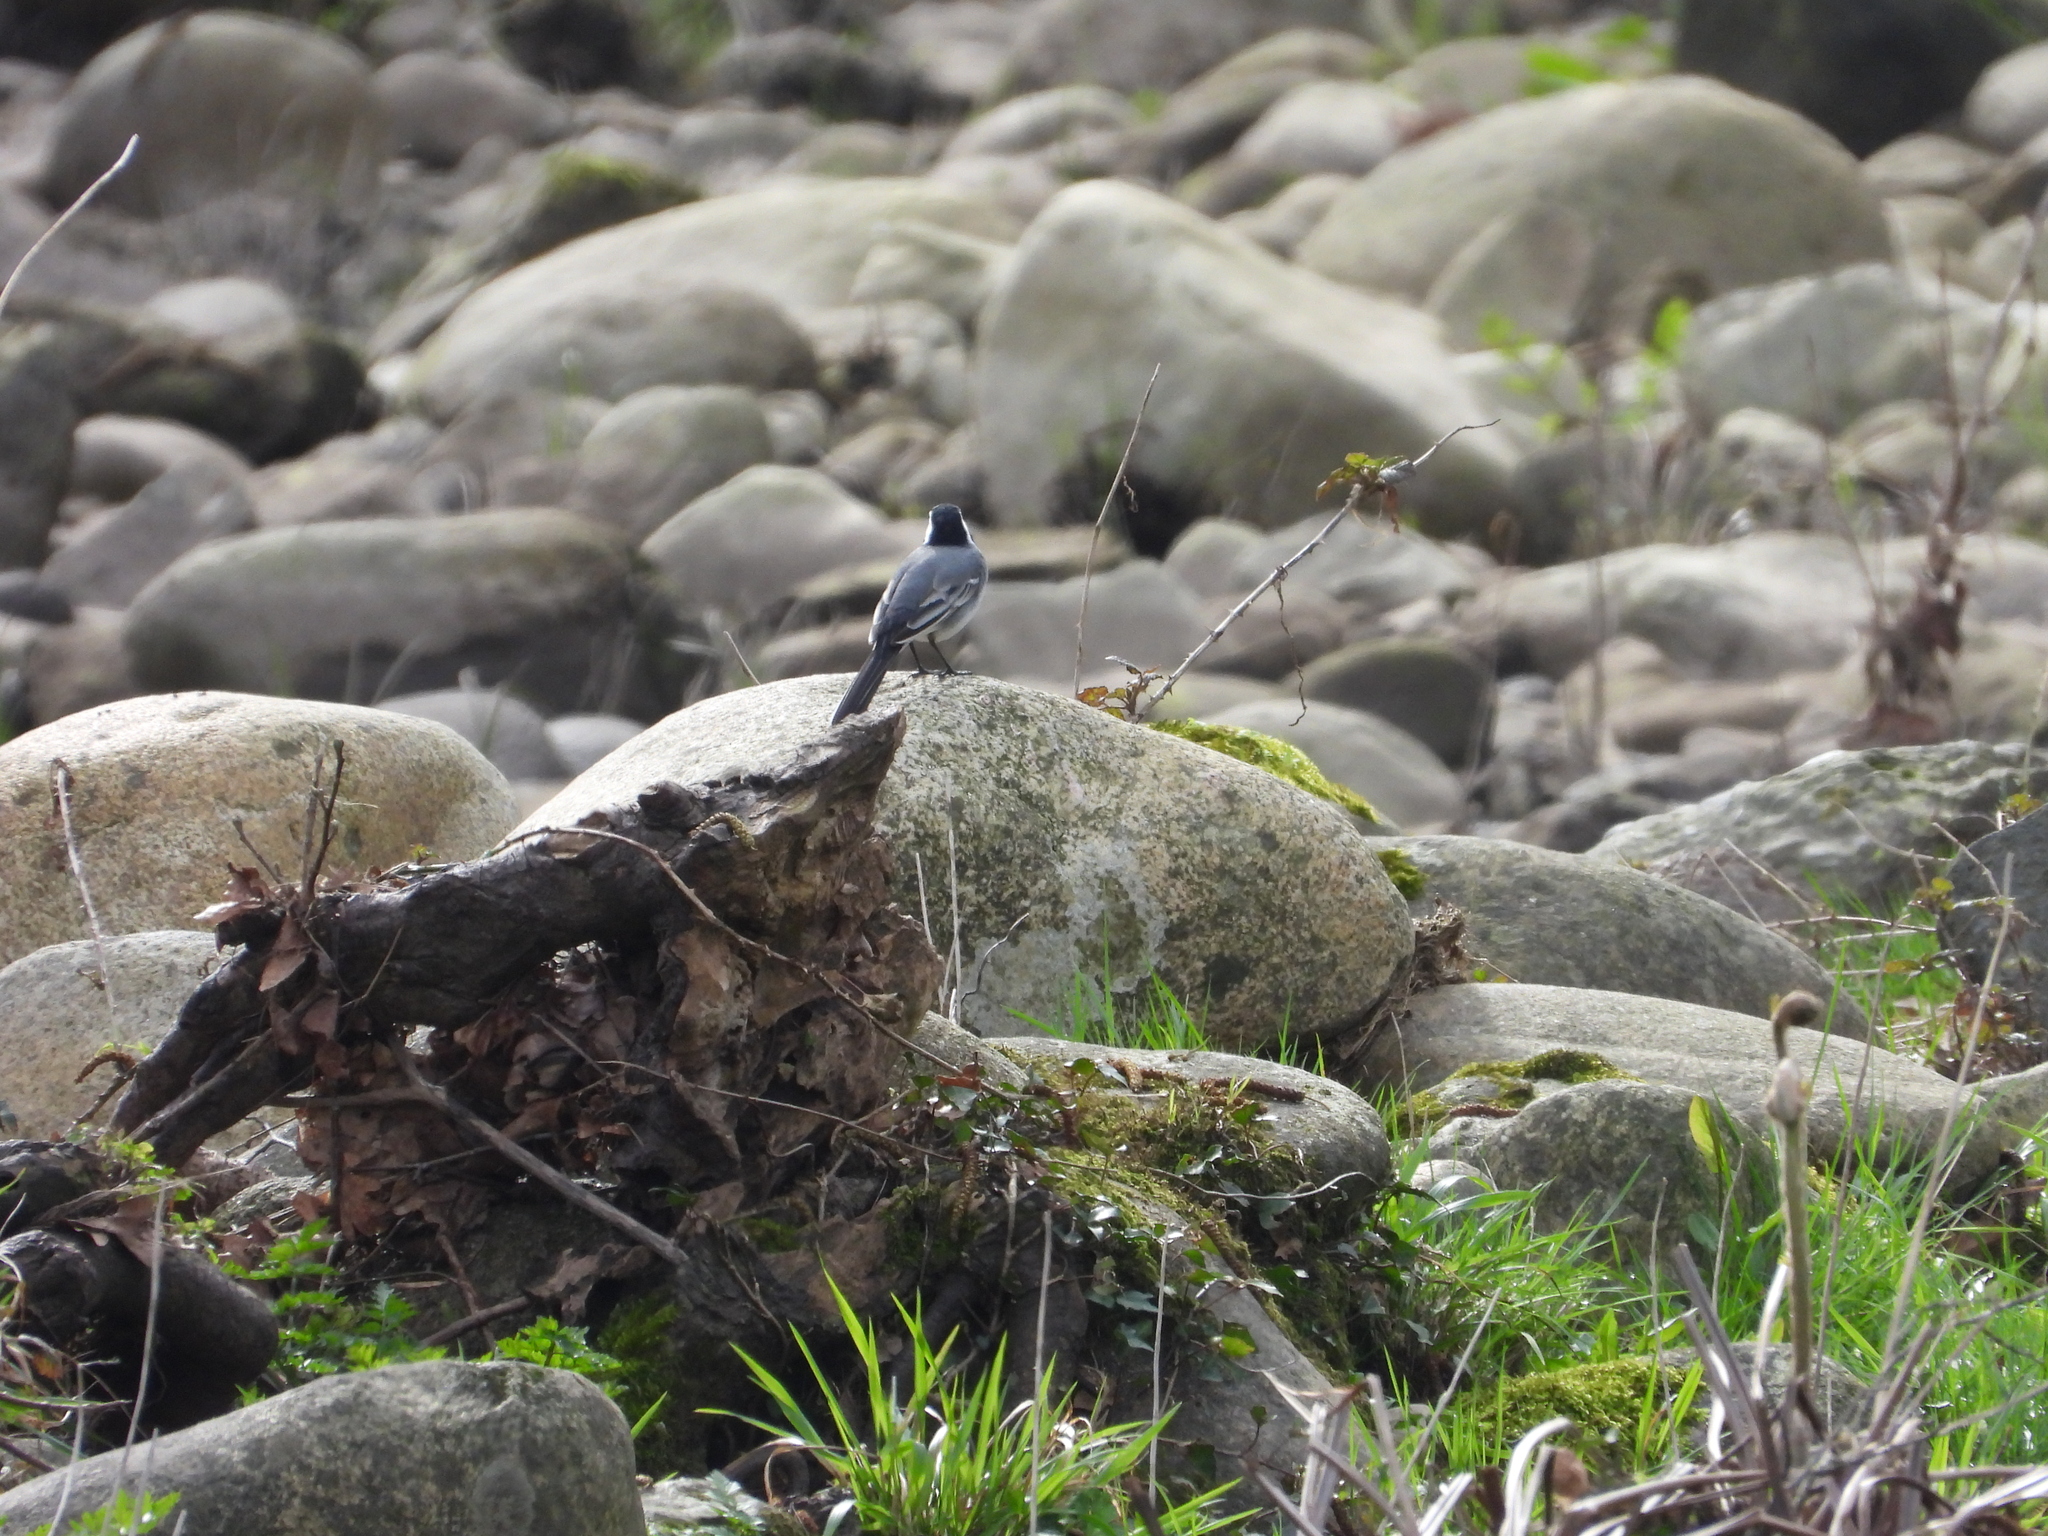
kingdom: Animalia
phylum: Chordata
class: Aves
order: Passeriformes
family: Motacillidae
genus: Motacilla
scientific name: Motacilla alba
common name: White wagtail
